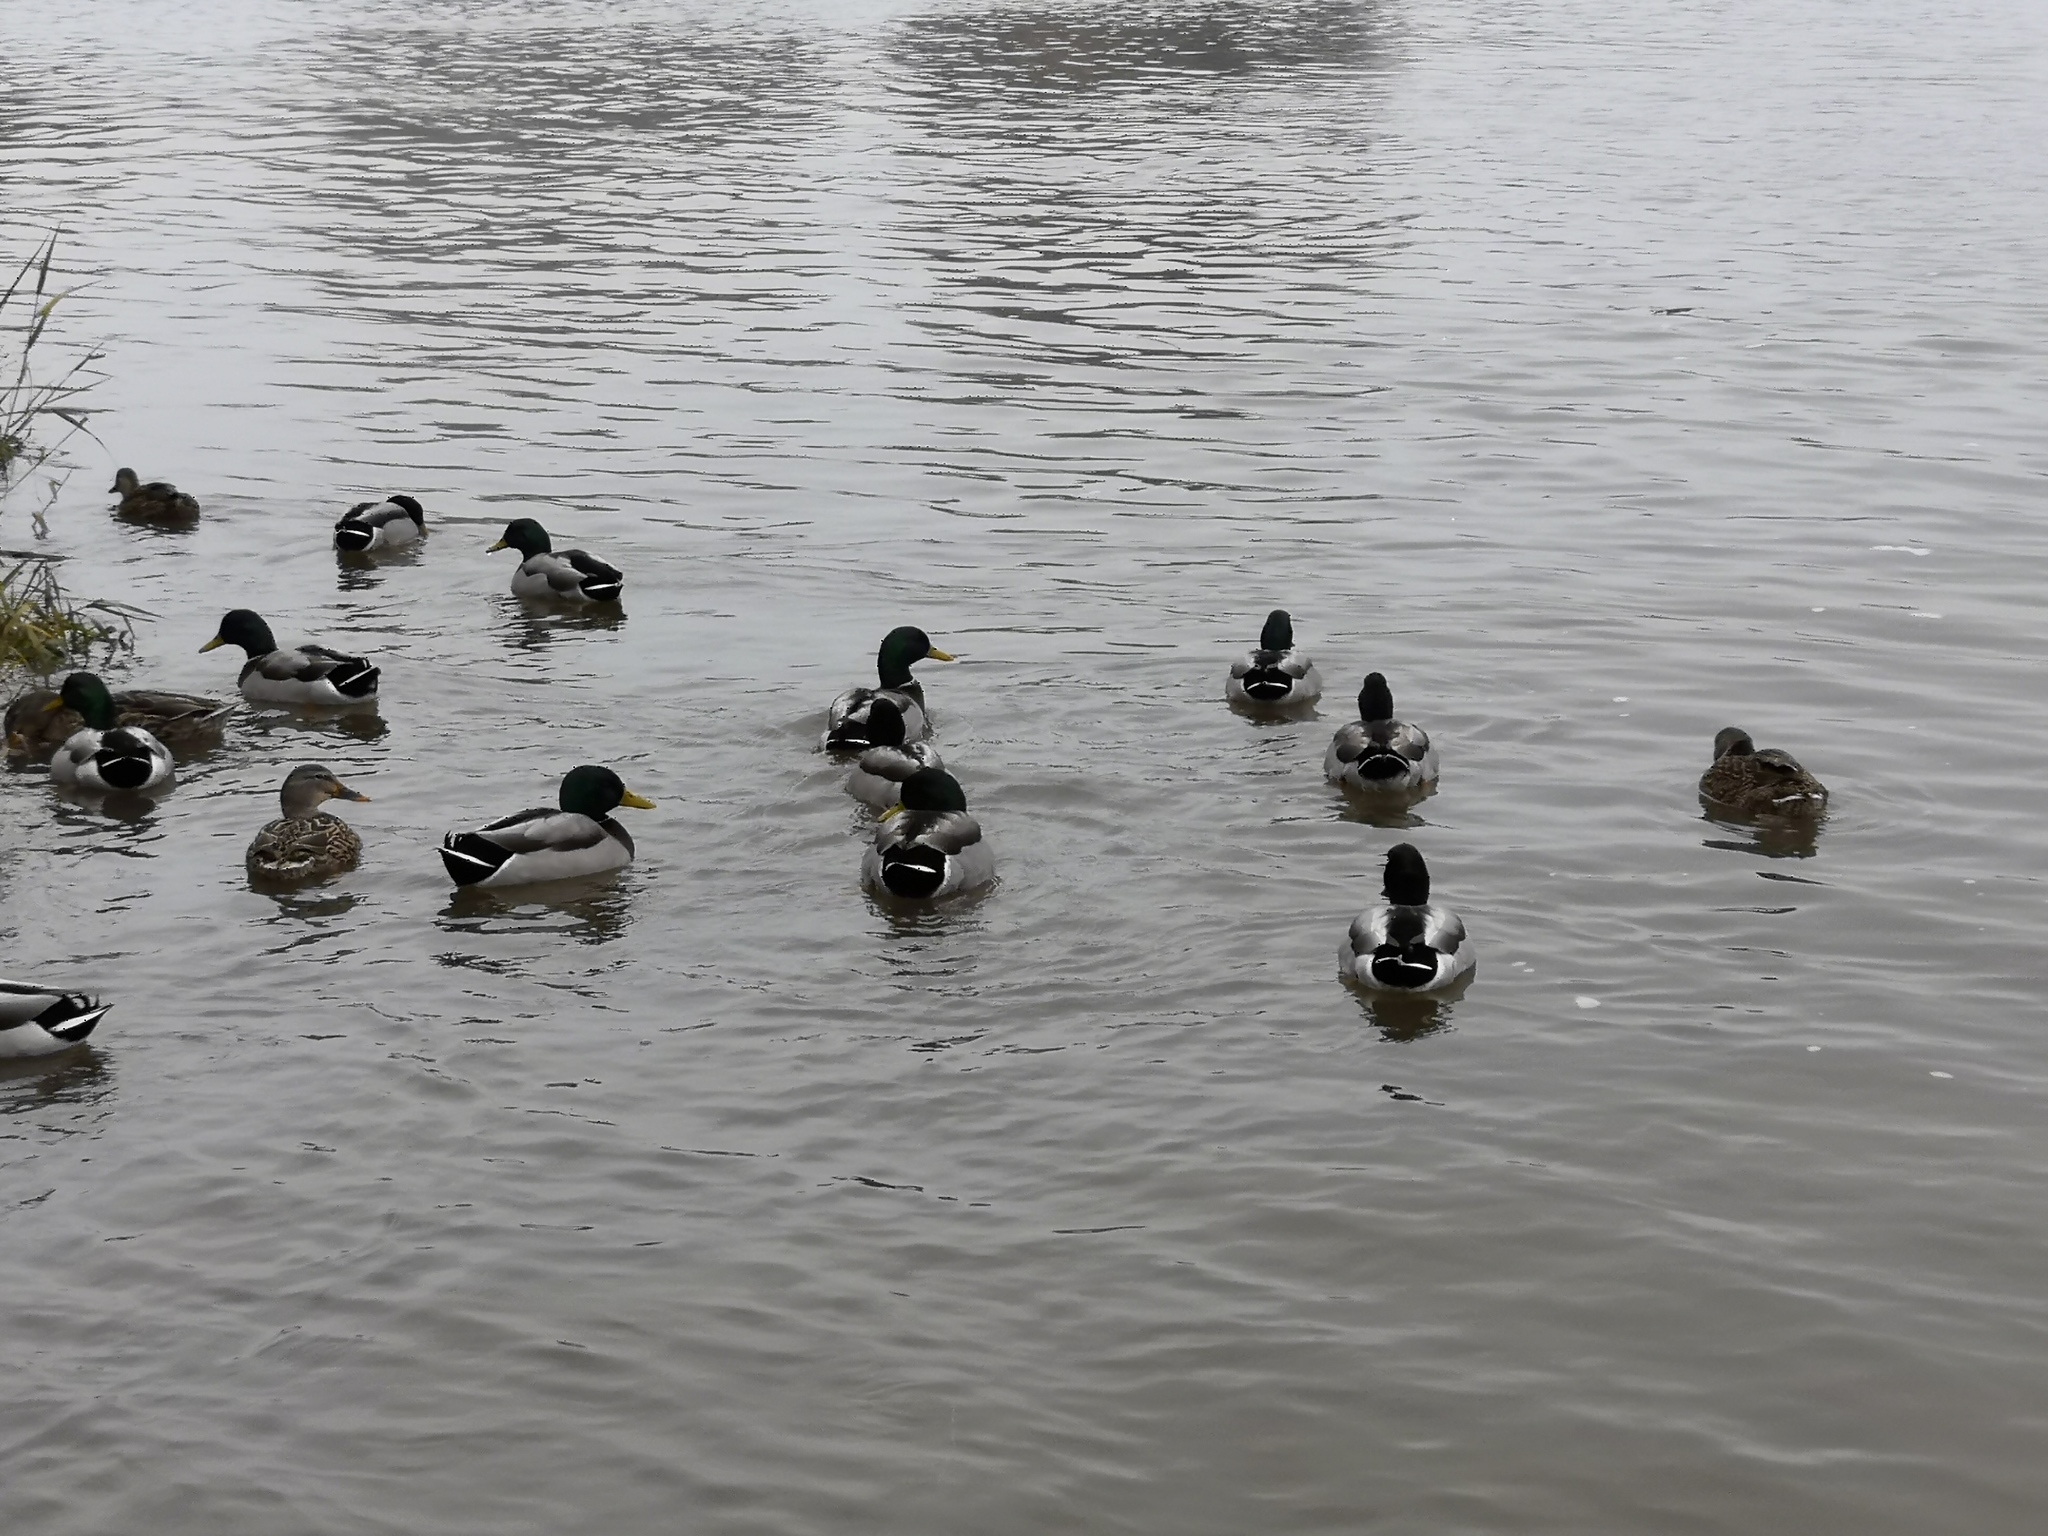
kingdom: Animalia
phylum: Chordata
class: Aves
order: Anseriformes
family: Anatidae
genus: Anas
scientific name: Anas platyrhynchos
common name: Mallard
